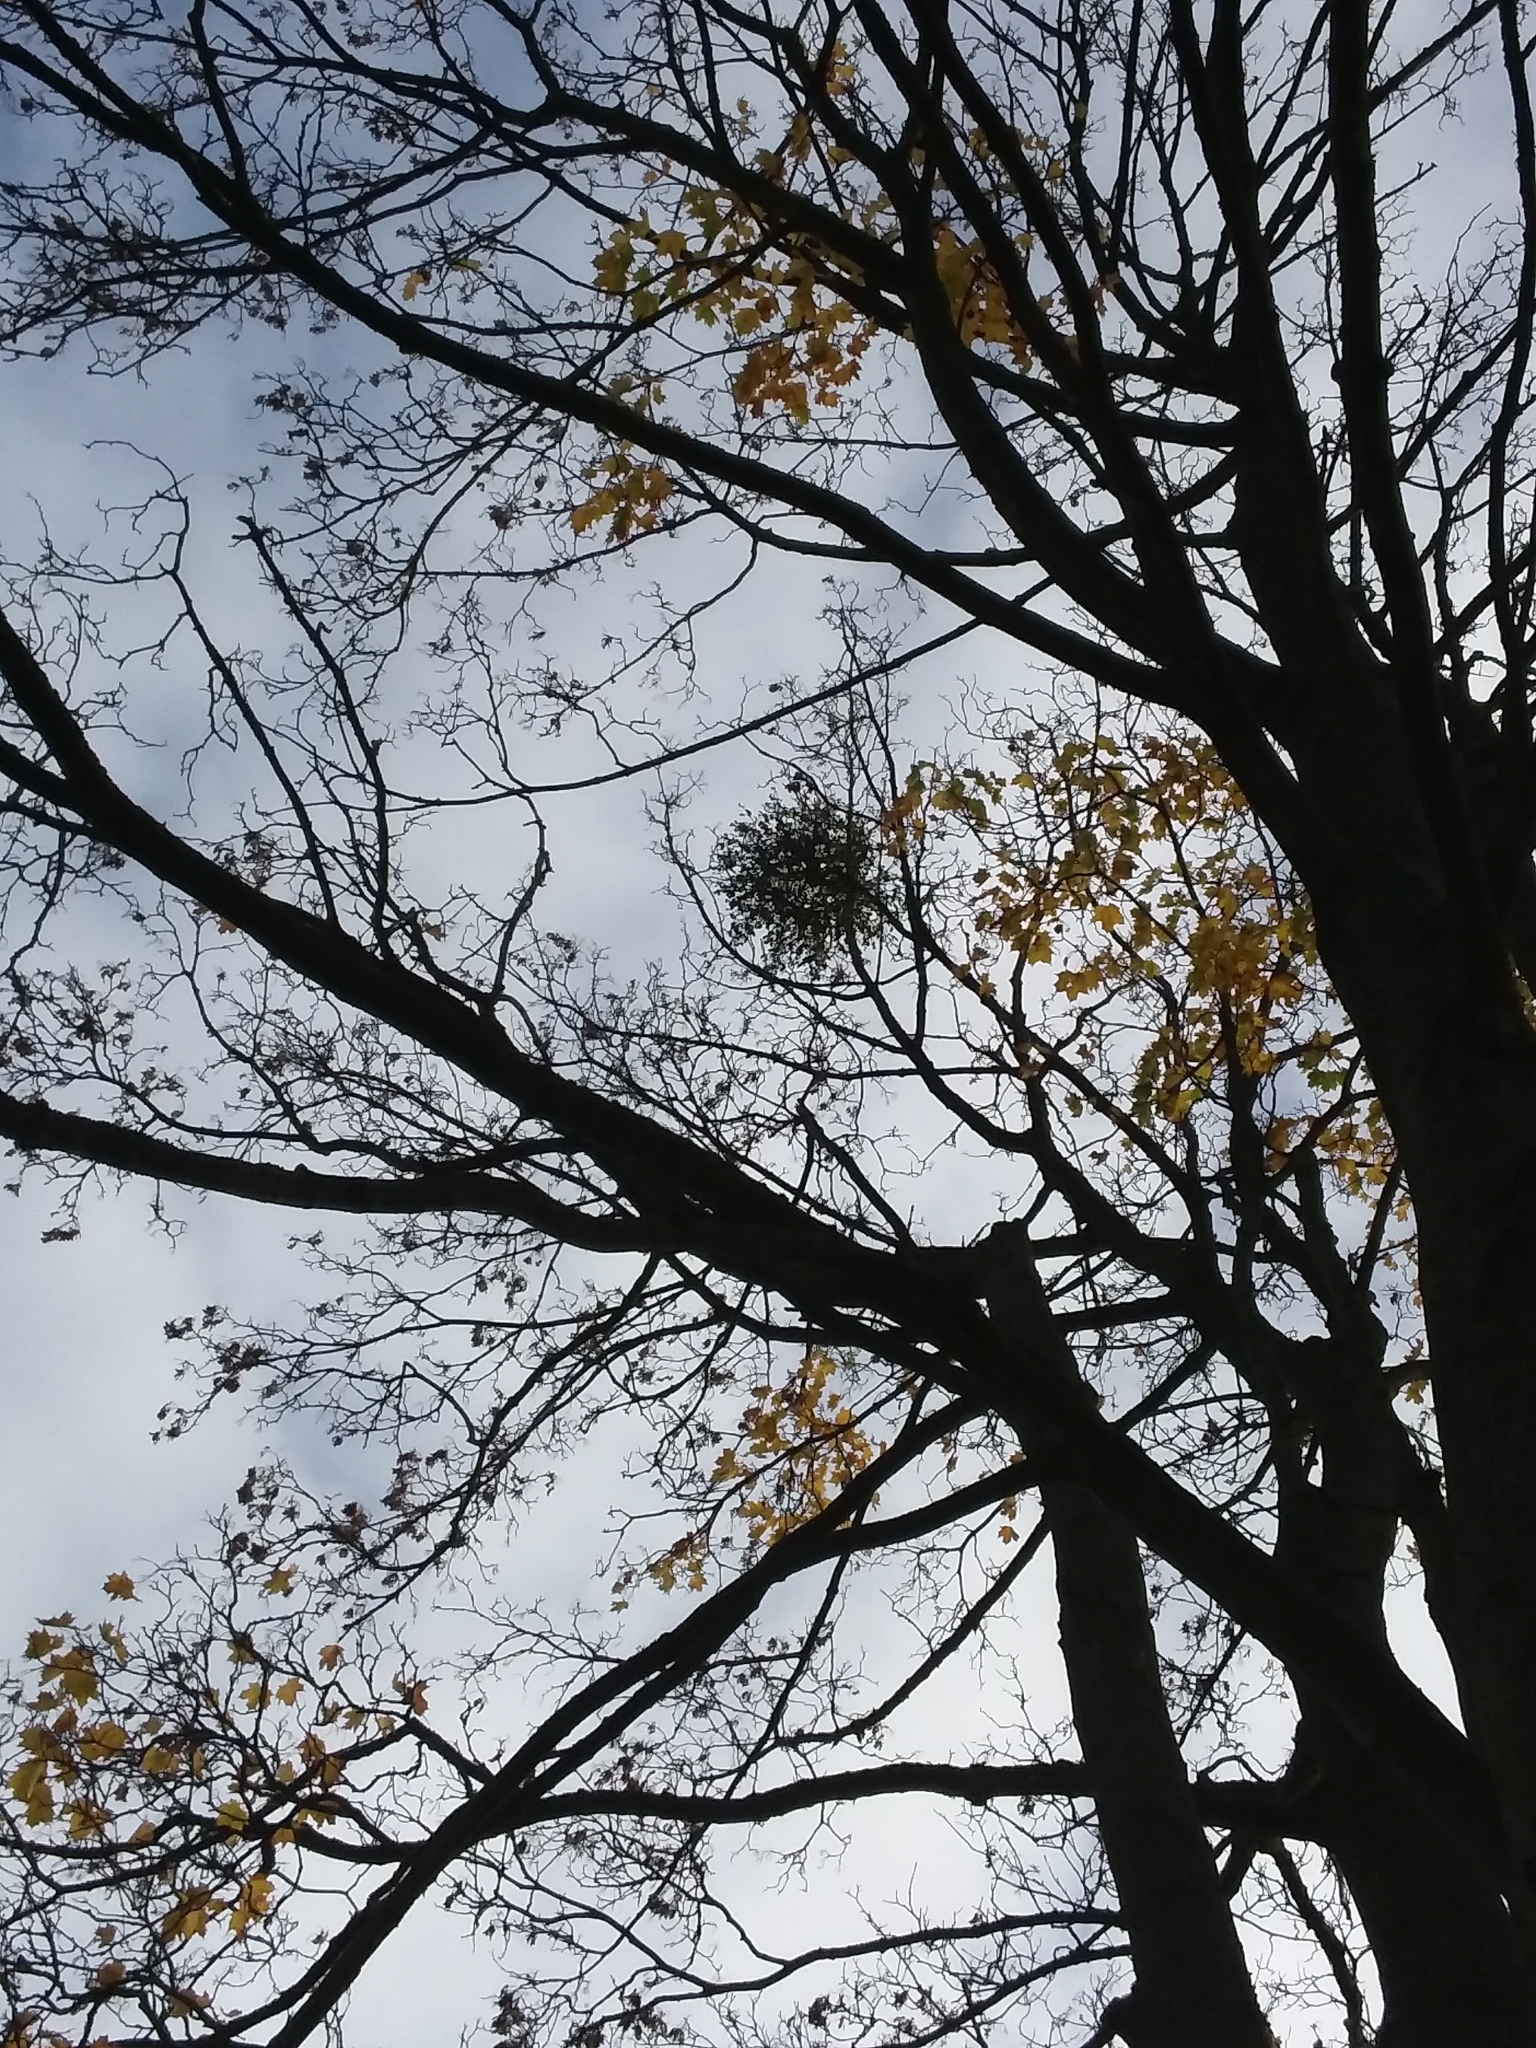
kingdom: Plantae
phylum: Tracheophyta
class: Magnoliopsida
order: Santalales
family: Viscaceae
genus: Viscum
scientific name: Viscum album
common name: Mistletoe
